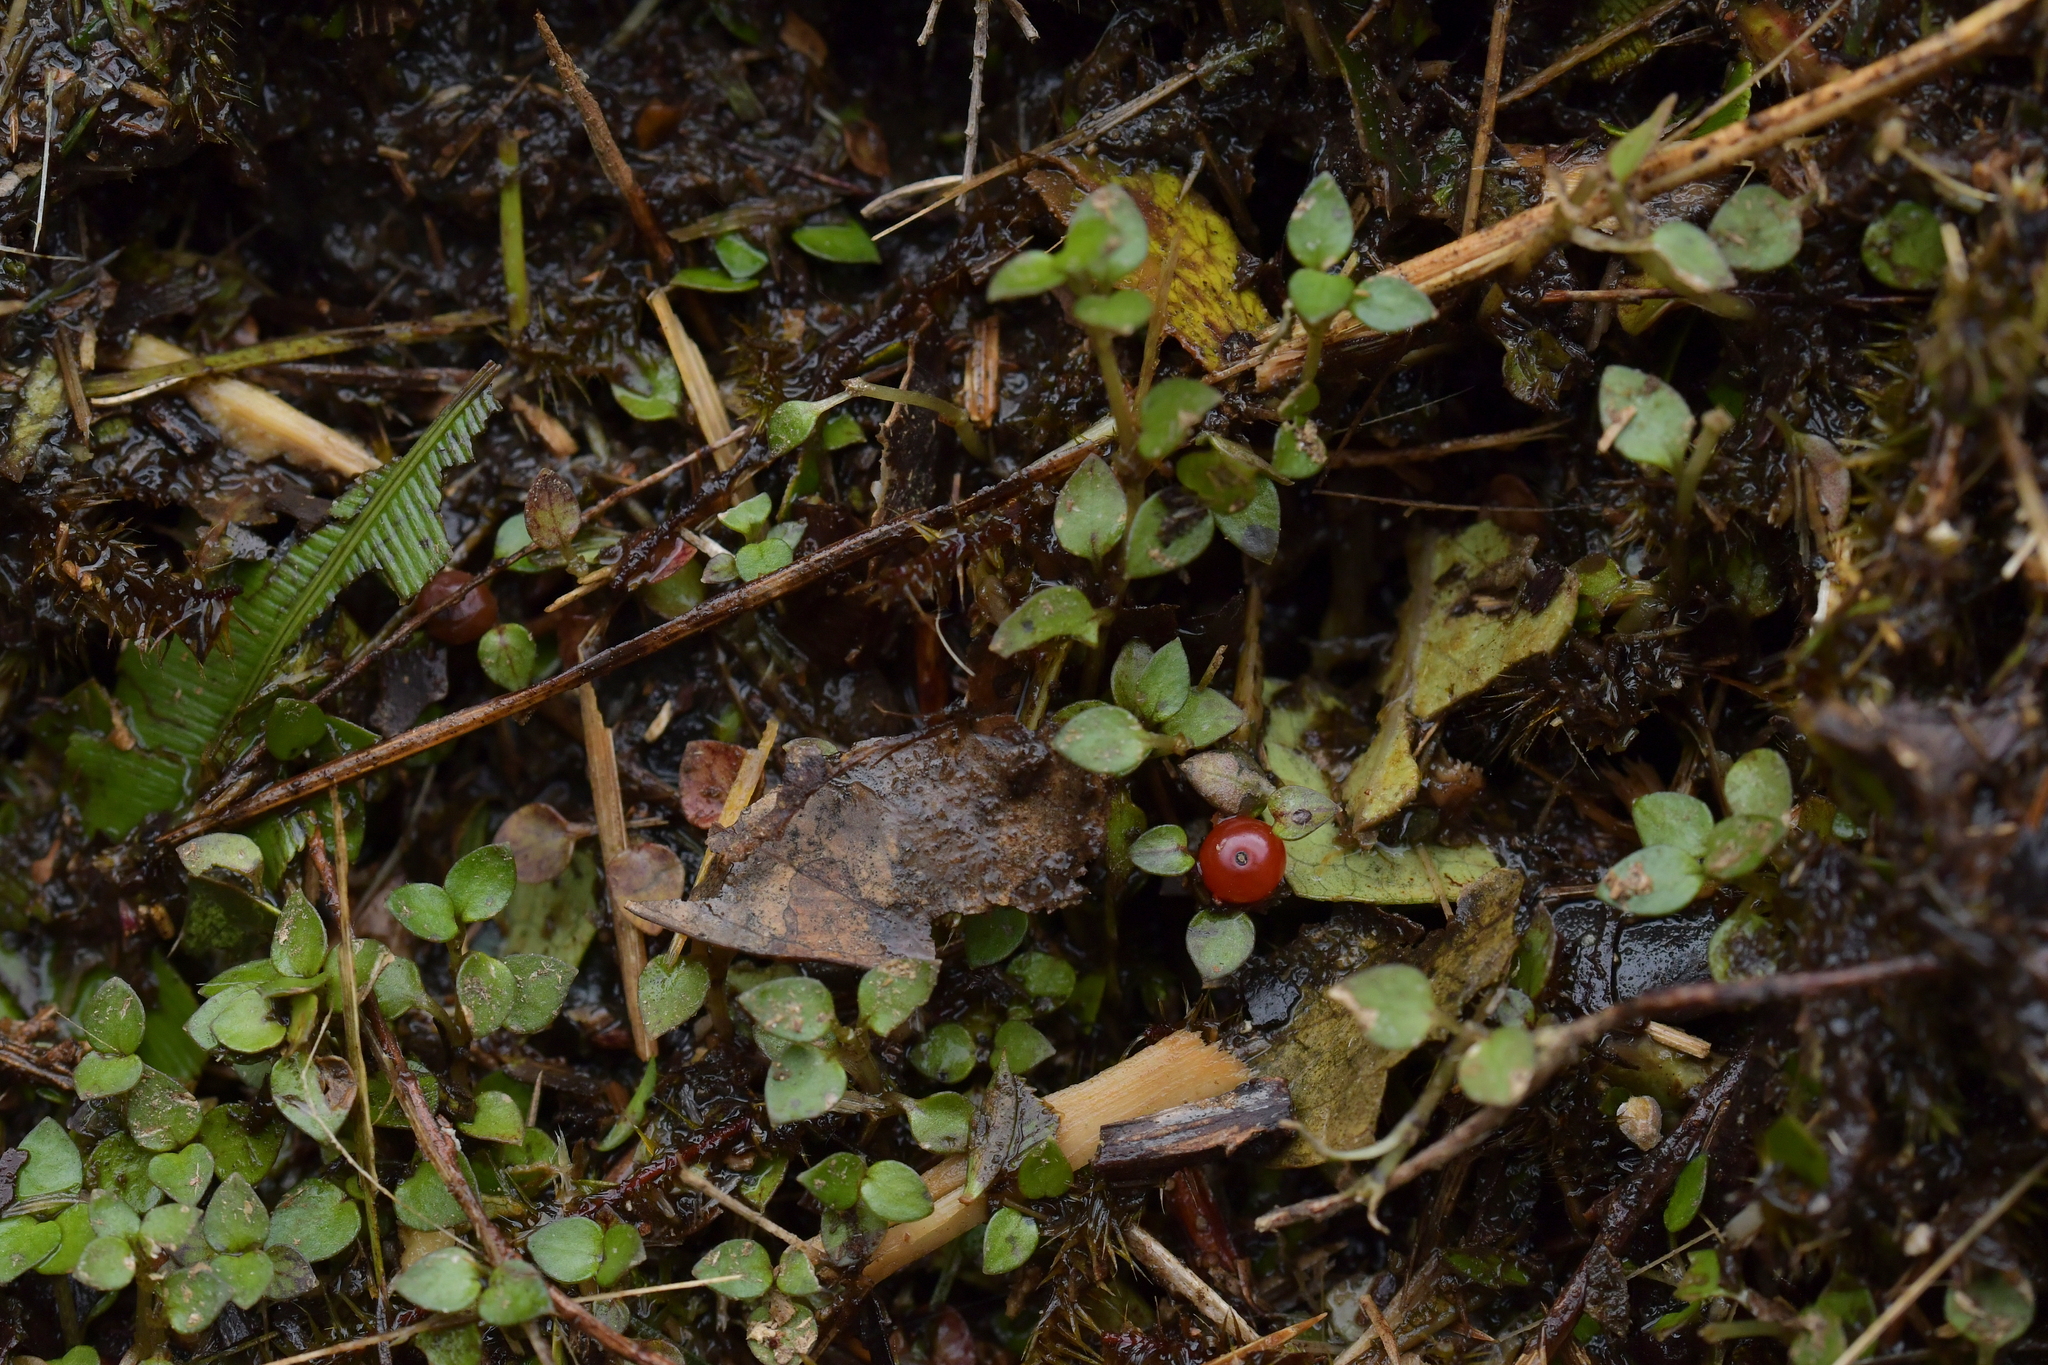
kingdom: Plantae
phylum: Tracheophyta
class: Magnoliopsida
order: Gentianales
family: Rubiaceae
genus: Nertera
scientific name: Nertera granadensis
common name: Beadplant
